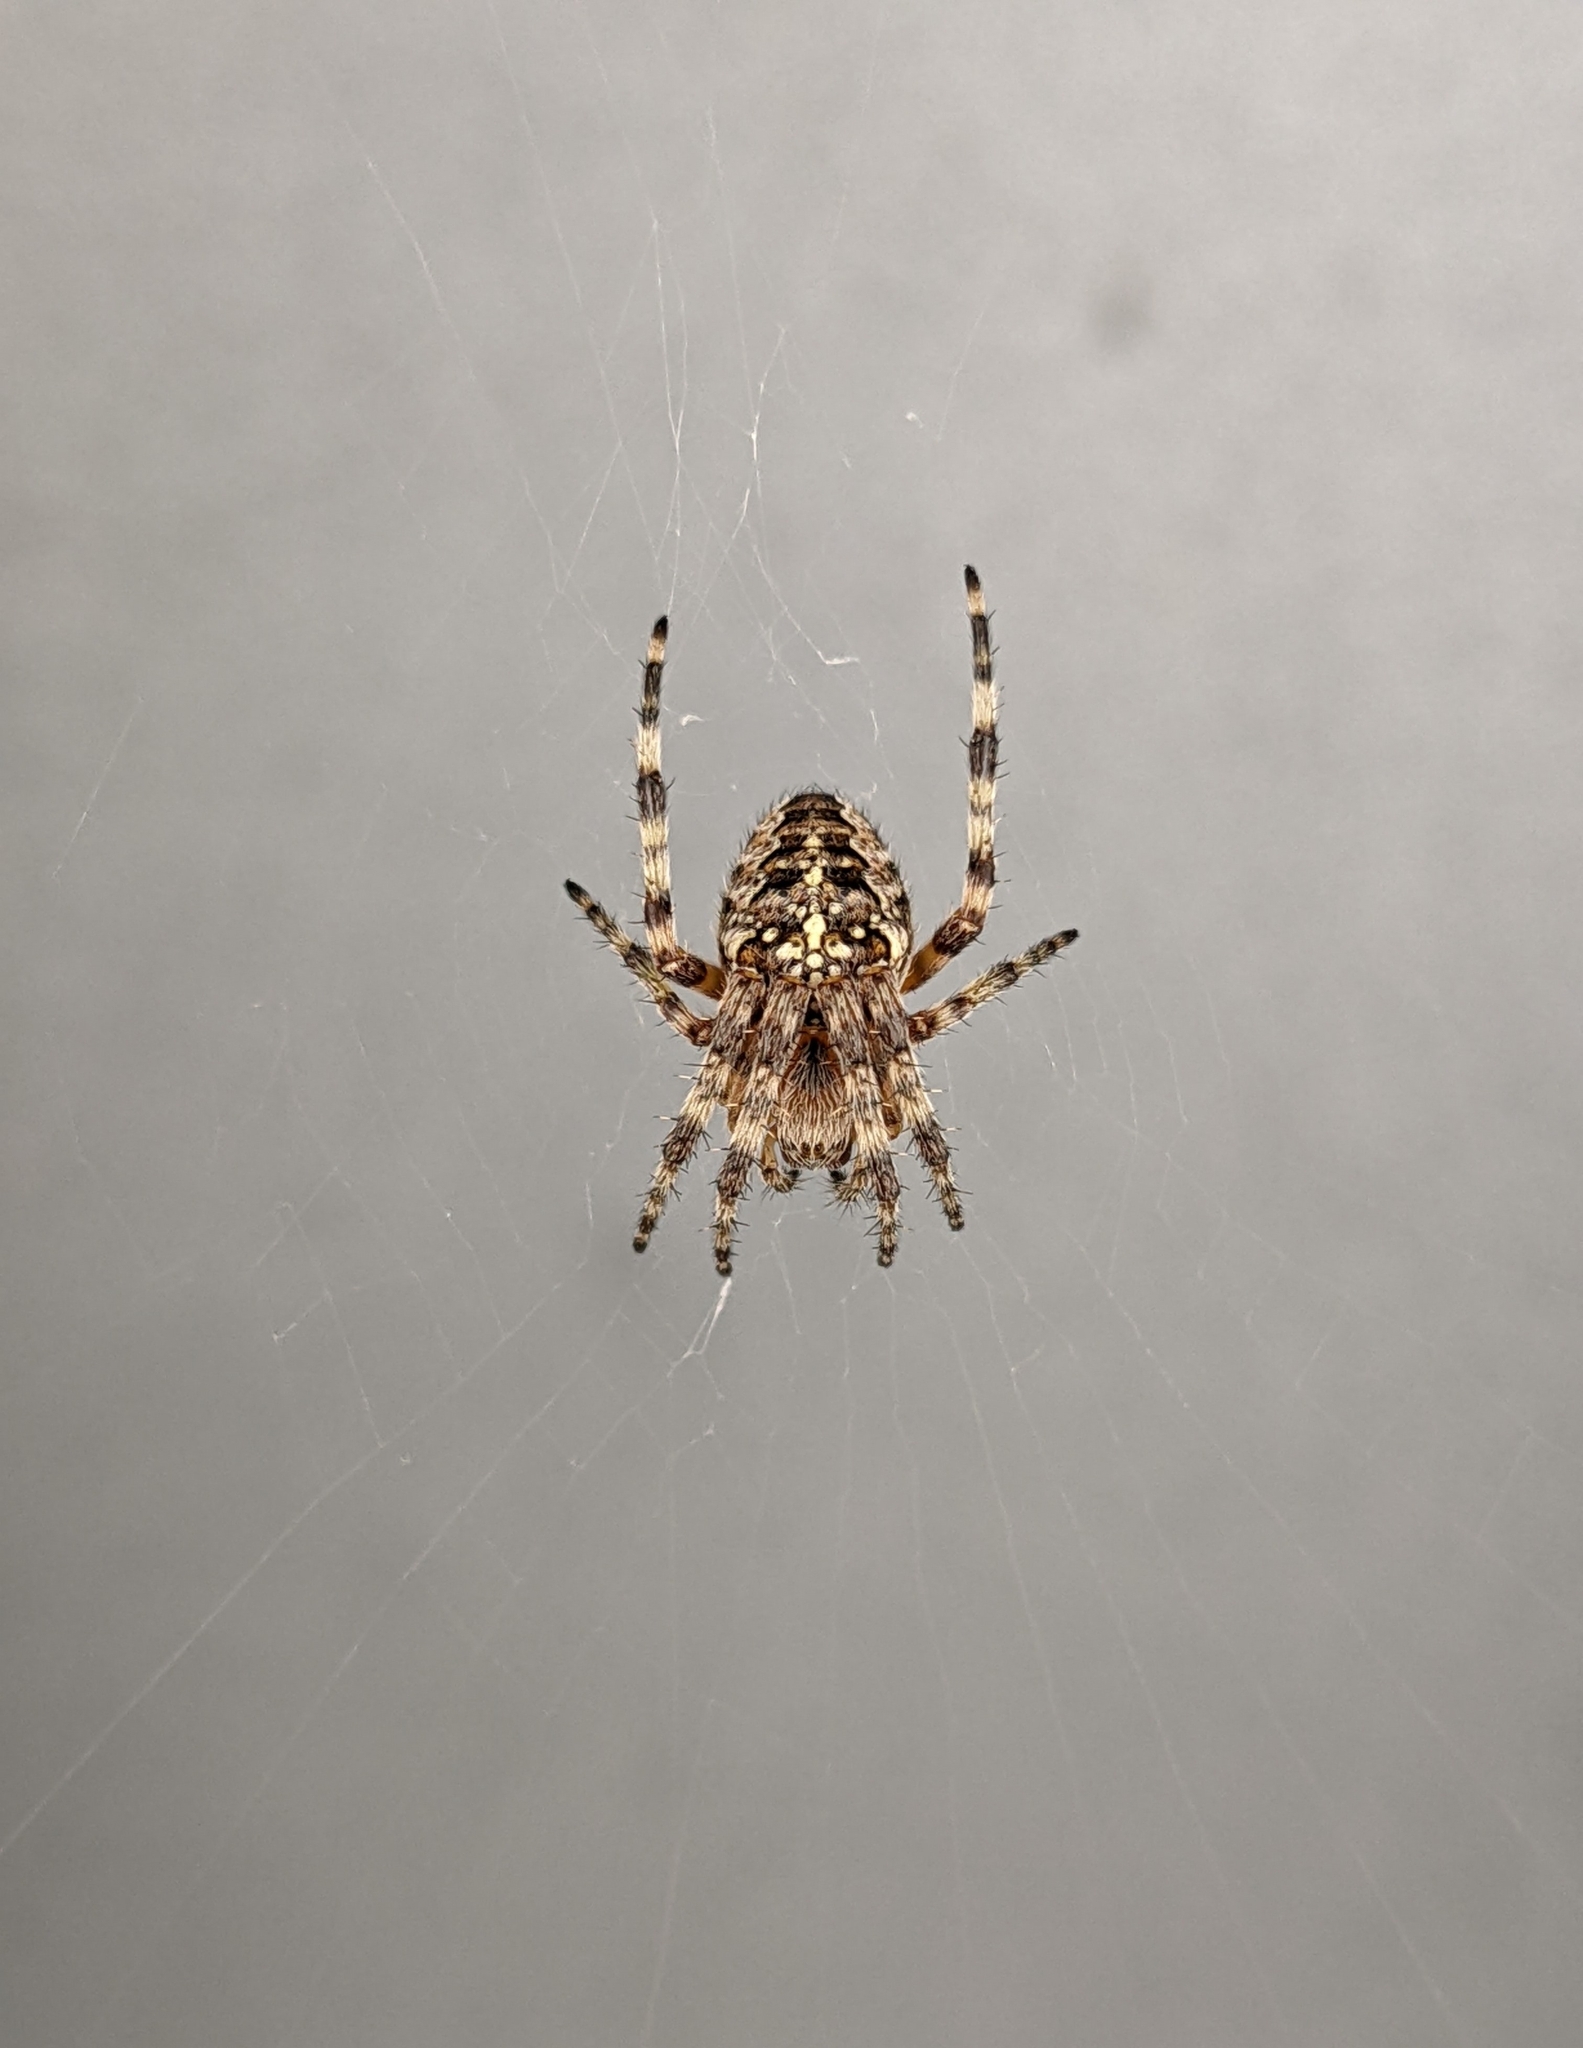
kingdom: Animalia
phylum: Arthropoda
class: Arachnida
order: Araneae
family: Araneidae
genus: Araneus
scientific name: Araneus diadematus
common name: Cross orbweaver
